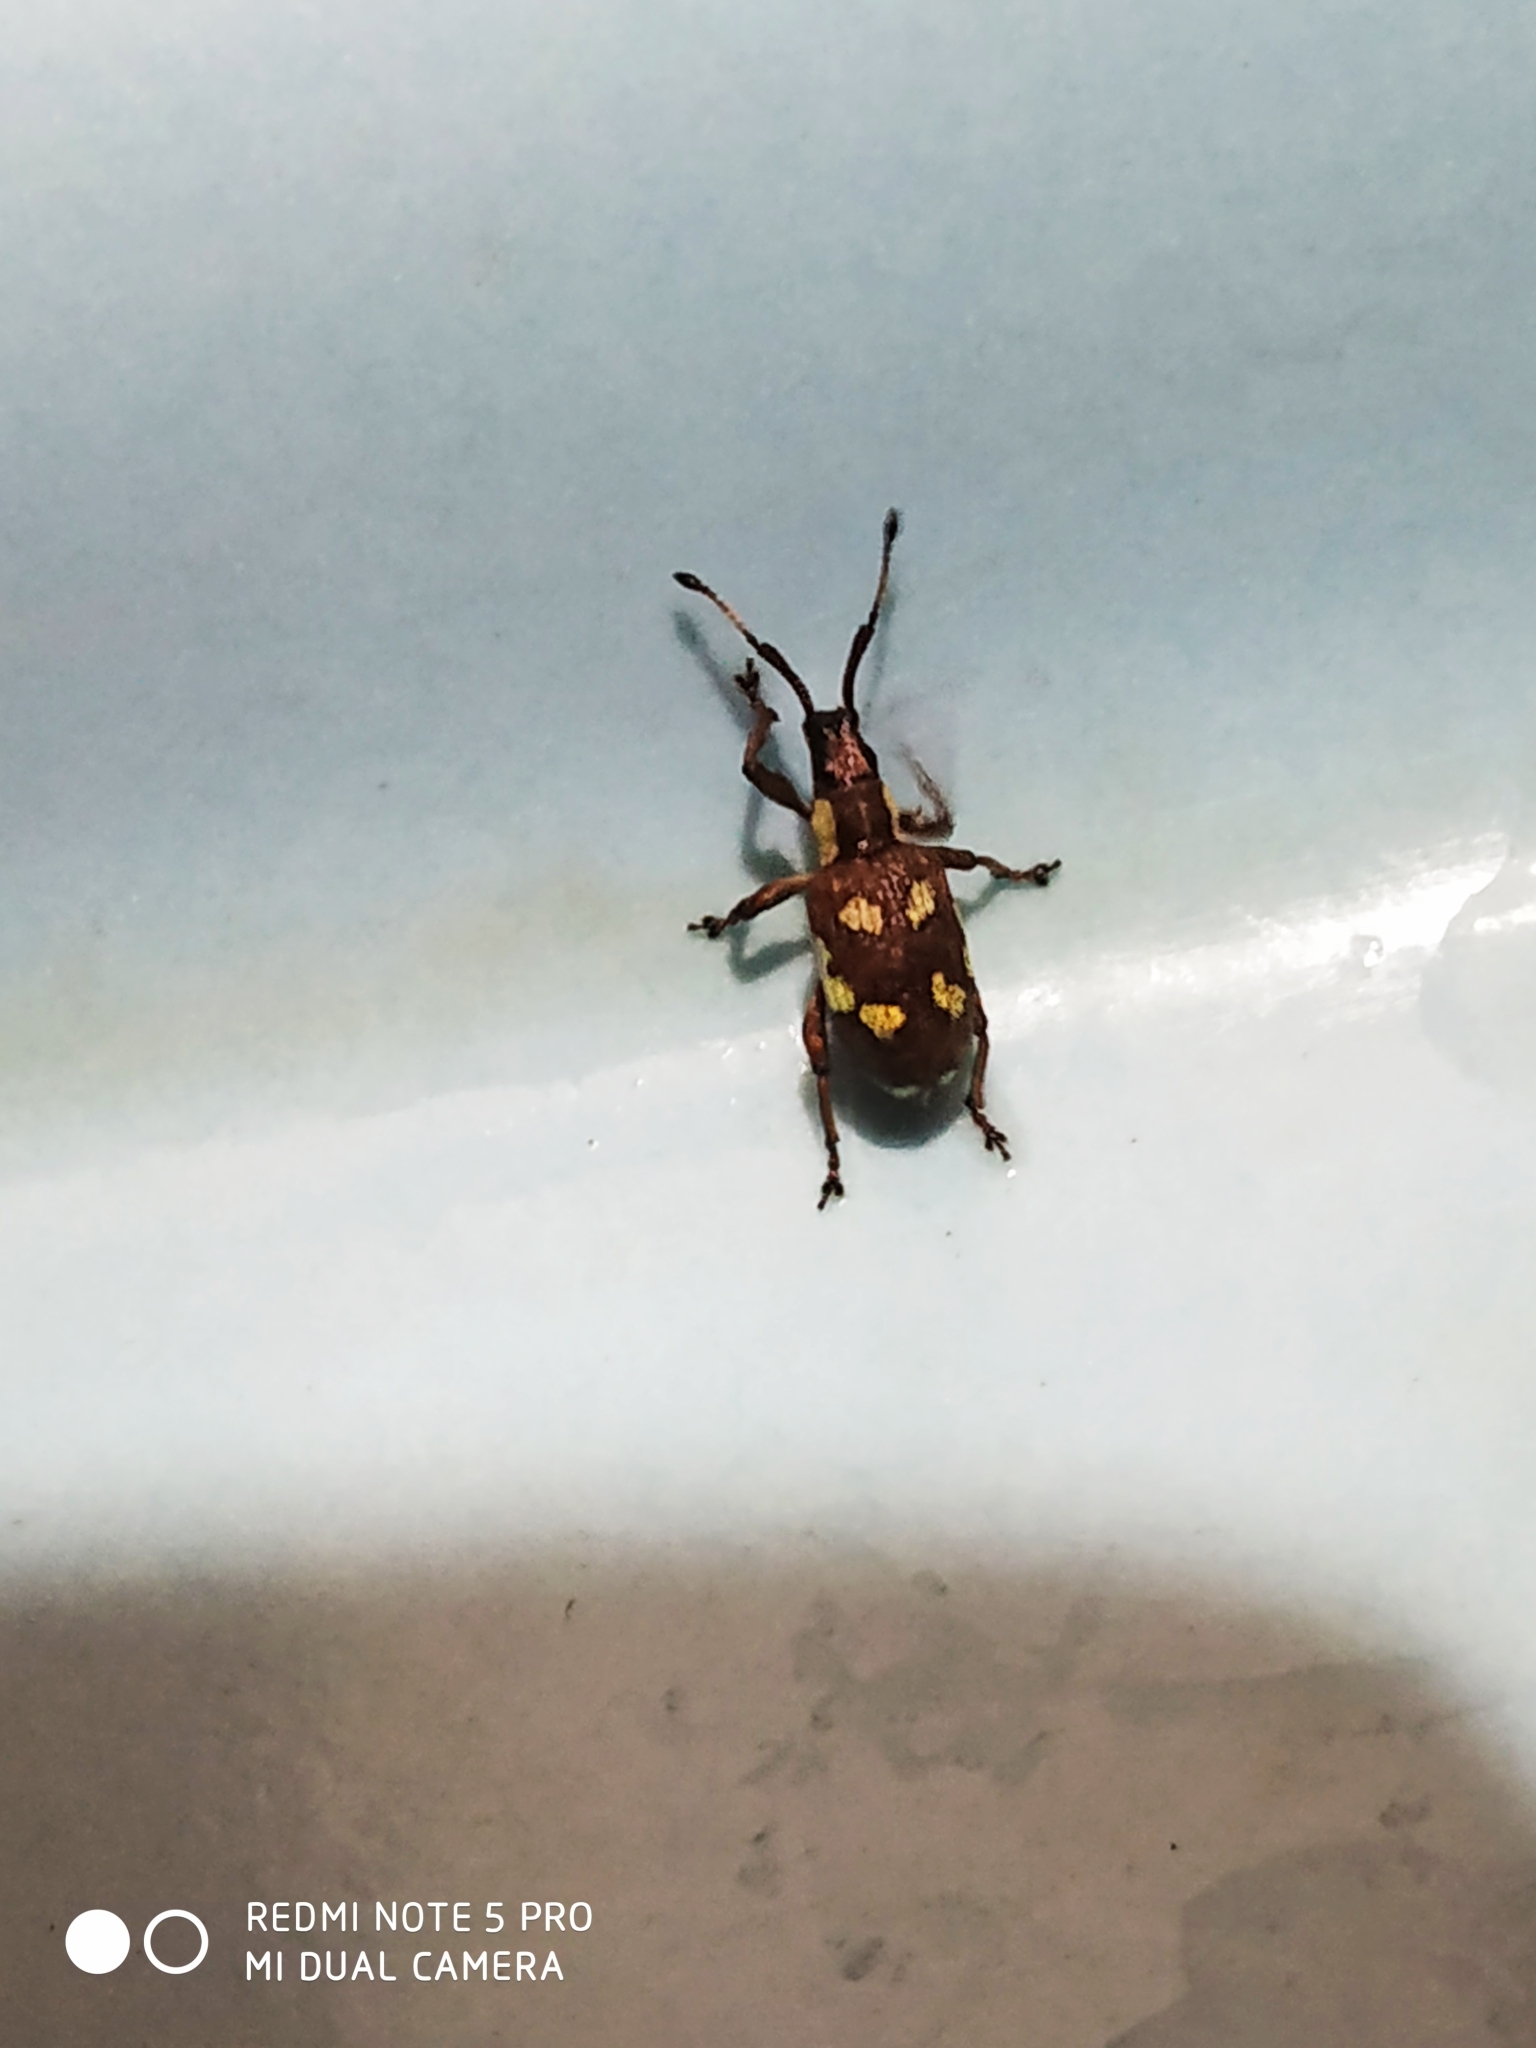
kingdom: Animalia
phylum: Arthropoda
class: Insecta
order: Coleoptera
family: Curculionidae
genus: Myllocerus
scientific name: Myllocerus andrewesi
